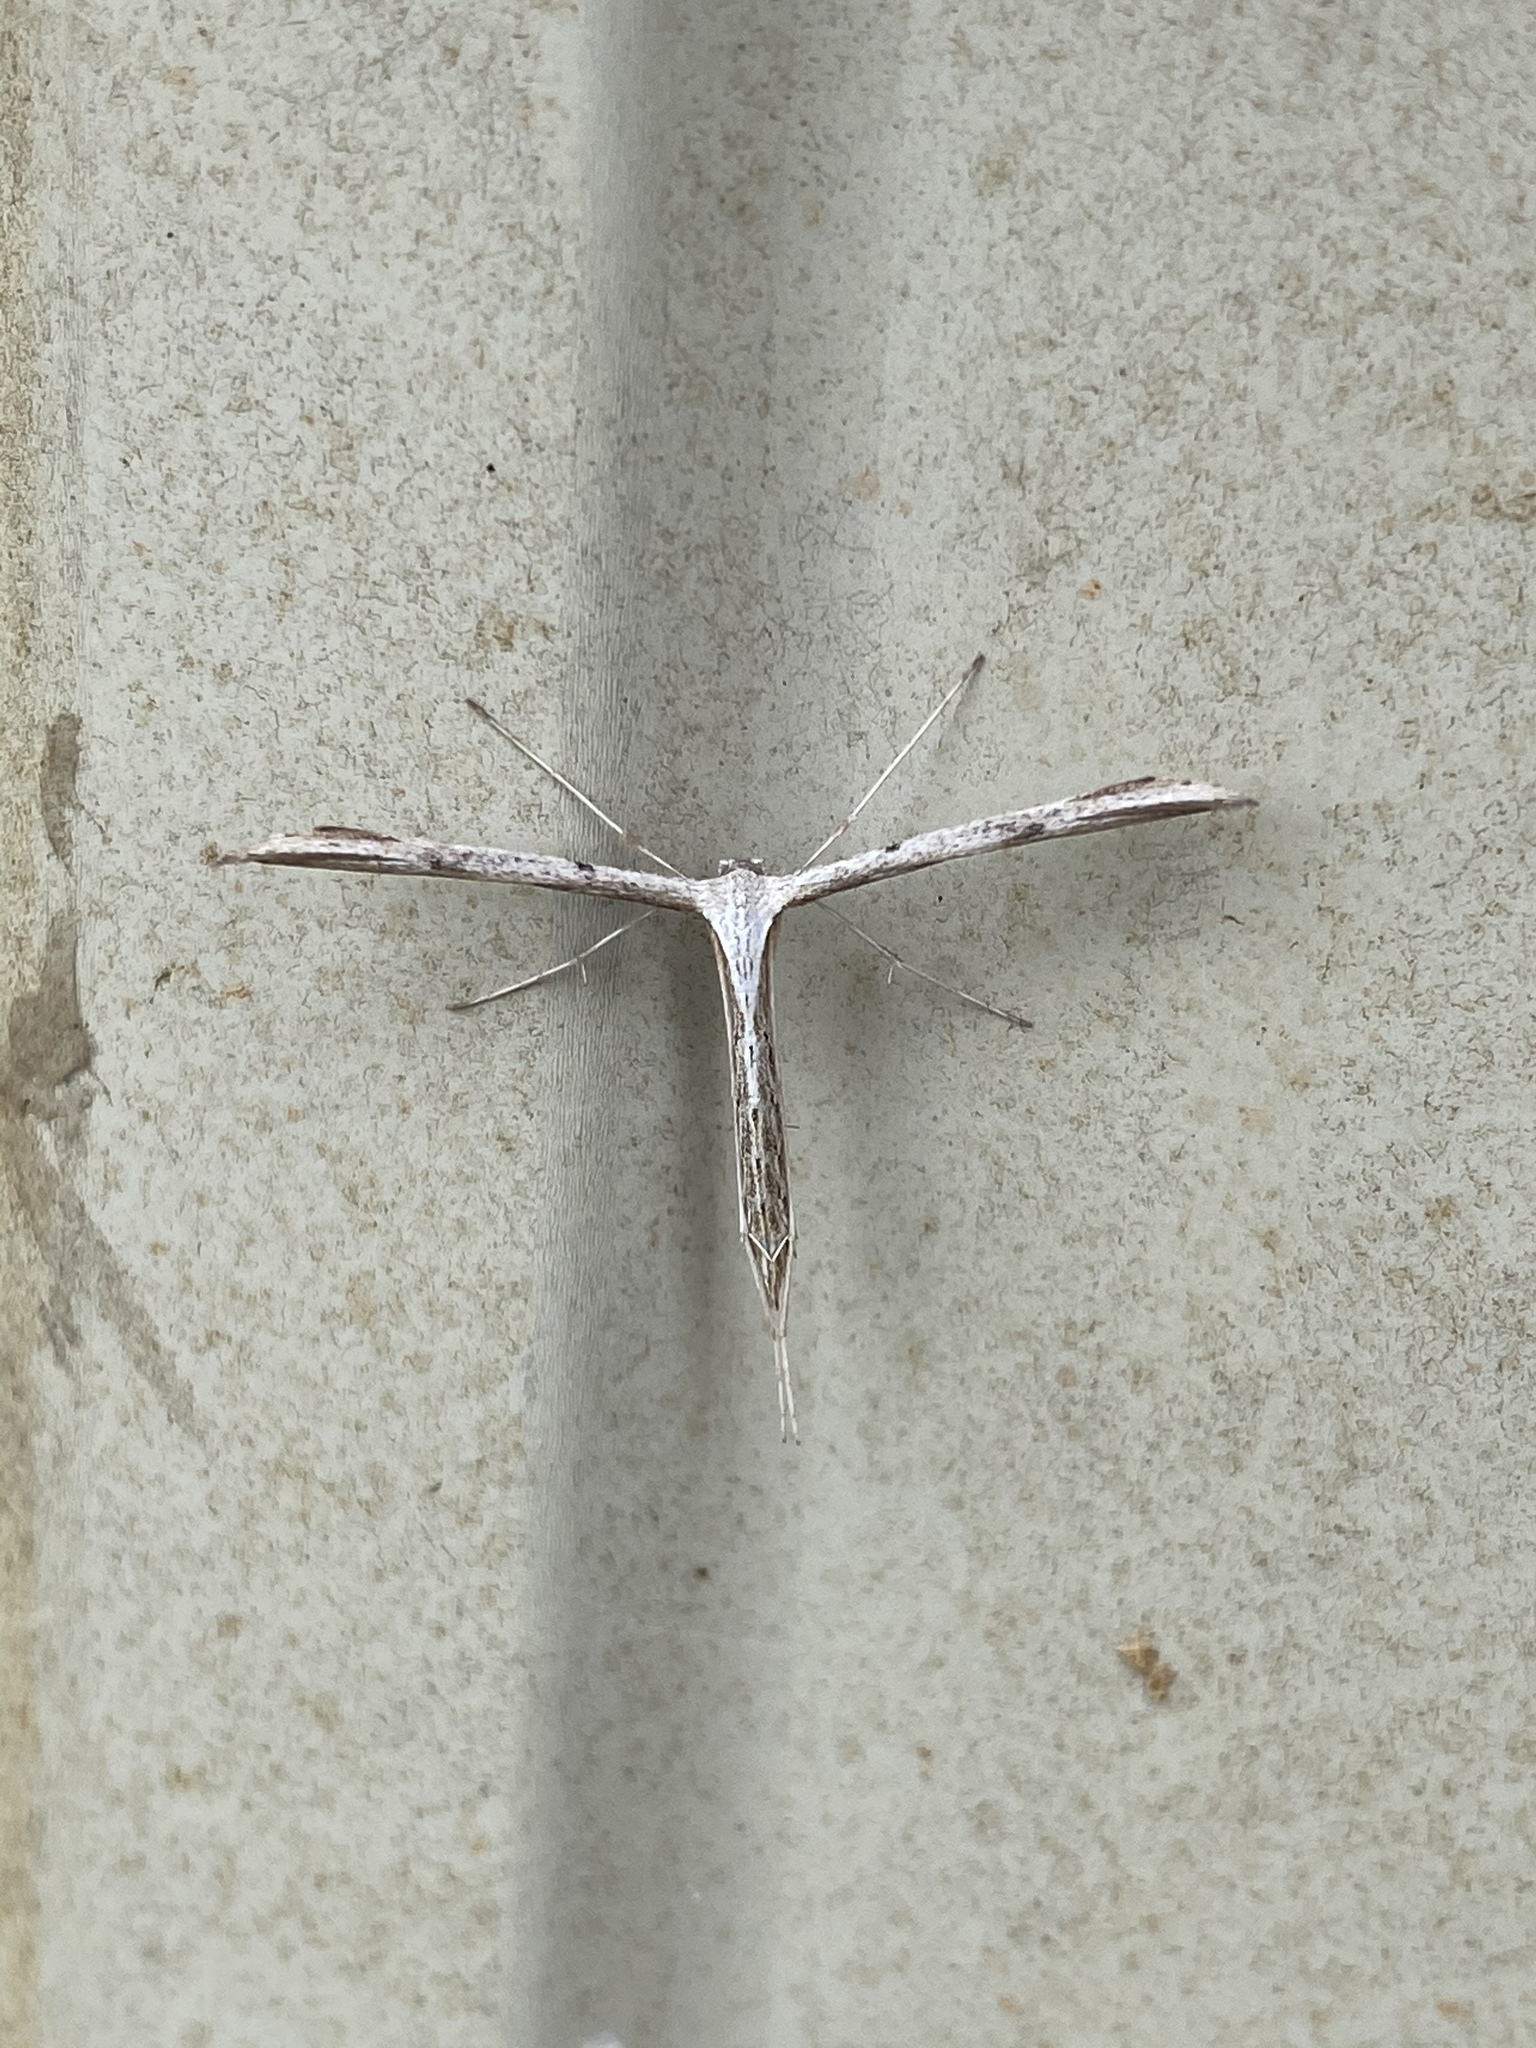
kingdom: Animalia
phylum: Arthropoda
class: Insecta
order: Lepidoptera
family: Pterophoridae
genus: Emmelina
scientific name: Emmelina monodactyla
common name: Common plume
